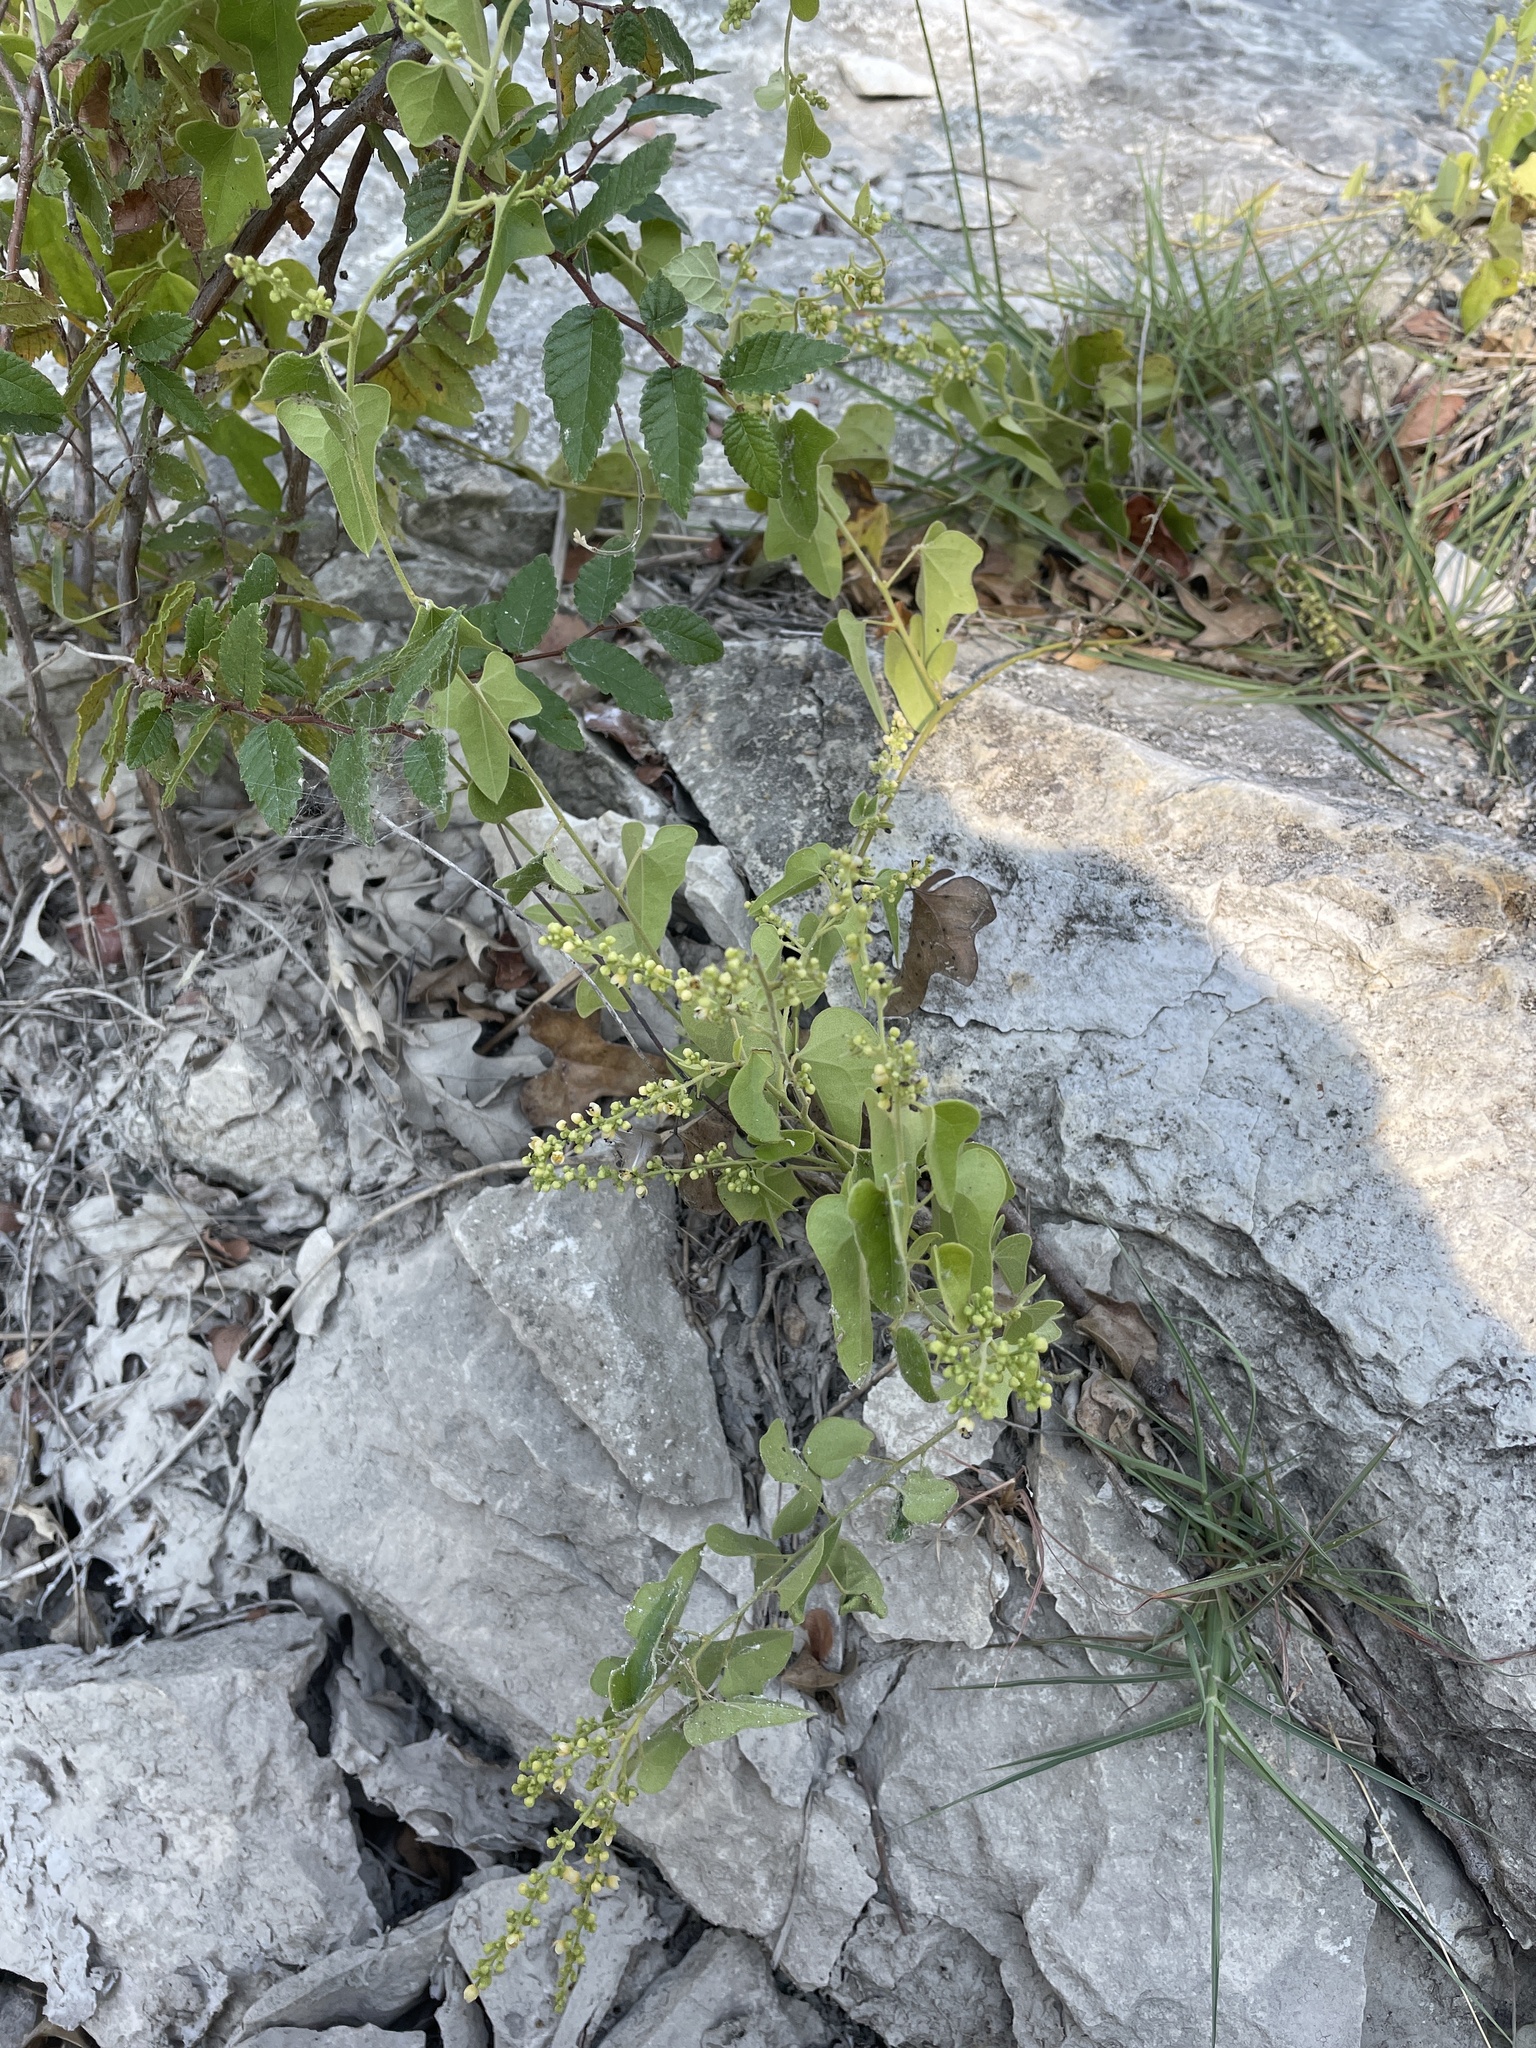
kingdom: Plantae
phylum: Tracheophyta
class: Magnoliopsida
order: Ranunculales
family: Menispermaceae
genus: Cocculus
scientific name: Cocculus carolinus
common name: Carolina moonseed
